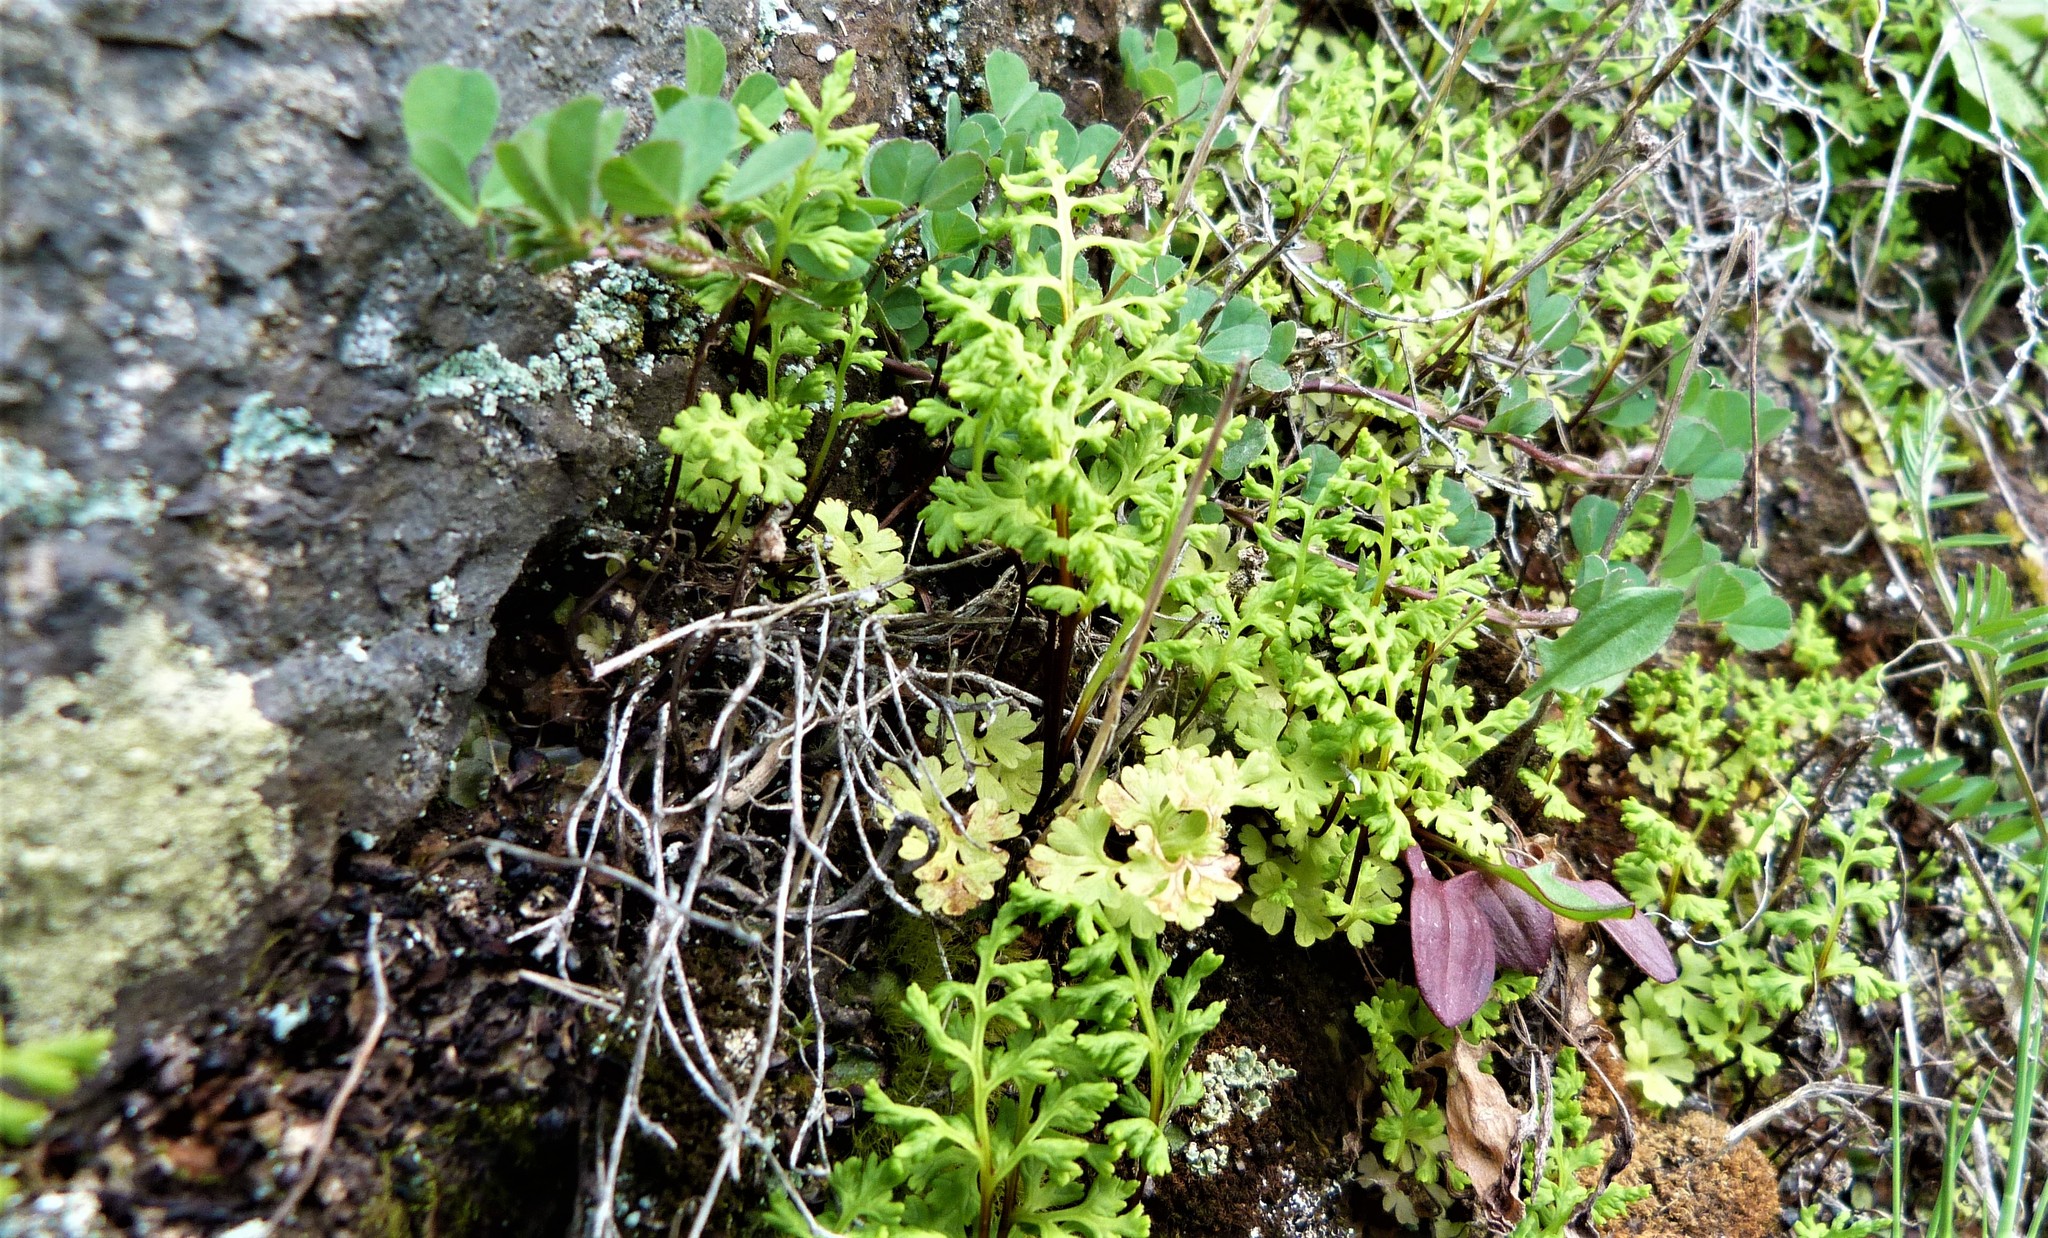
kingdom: Plantae
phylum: Tracheophyta
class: Polypodiopsida
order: Polypodiales
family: Pteridaceae
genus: Anogramma
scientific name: Anogramma leptophylla
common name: Jersey fern
